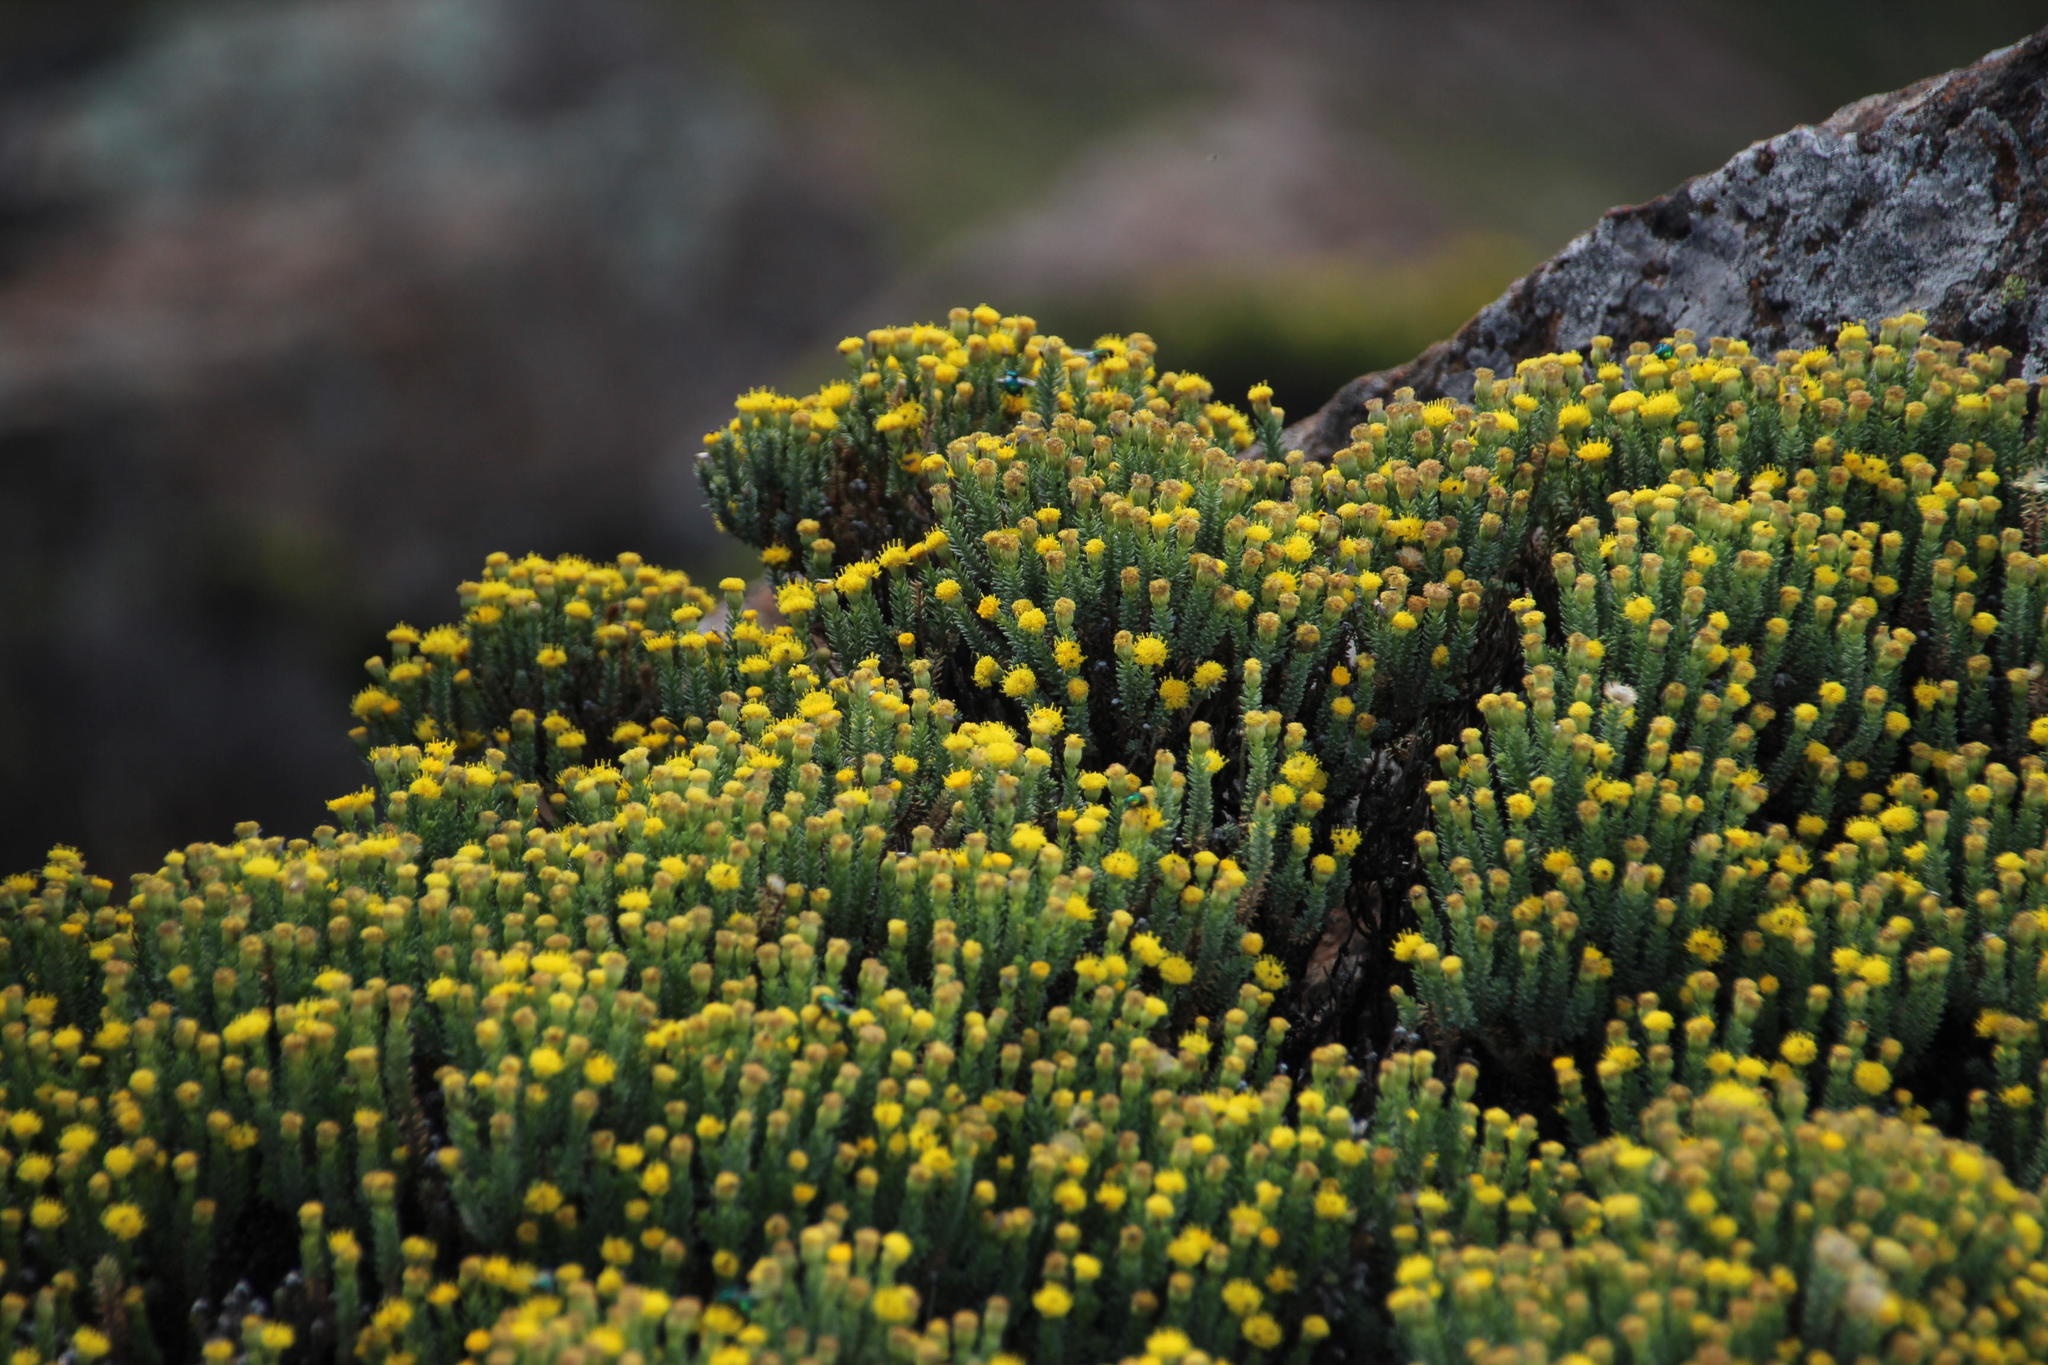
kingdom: Plantae
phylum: Tracheophyta
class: Magnoliopsida
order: Asterales
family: Asteraceae
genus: Chrysocoma
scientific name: Chrysocoma ciliata
